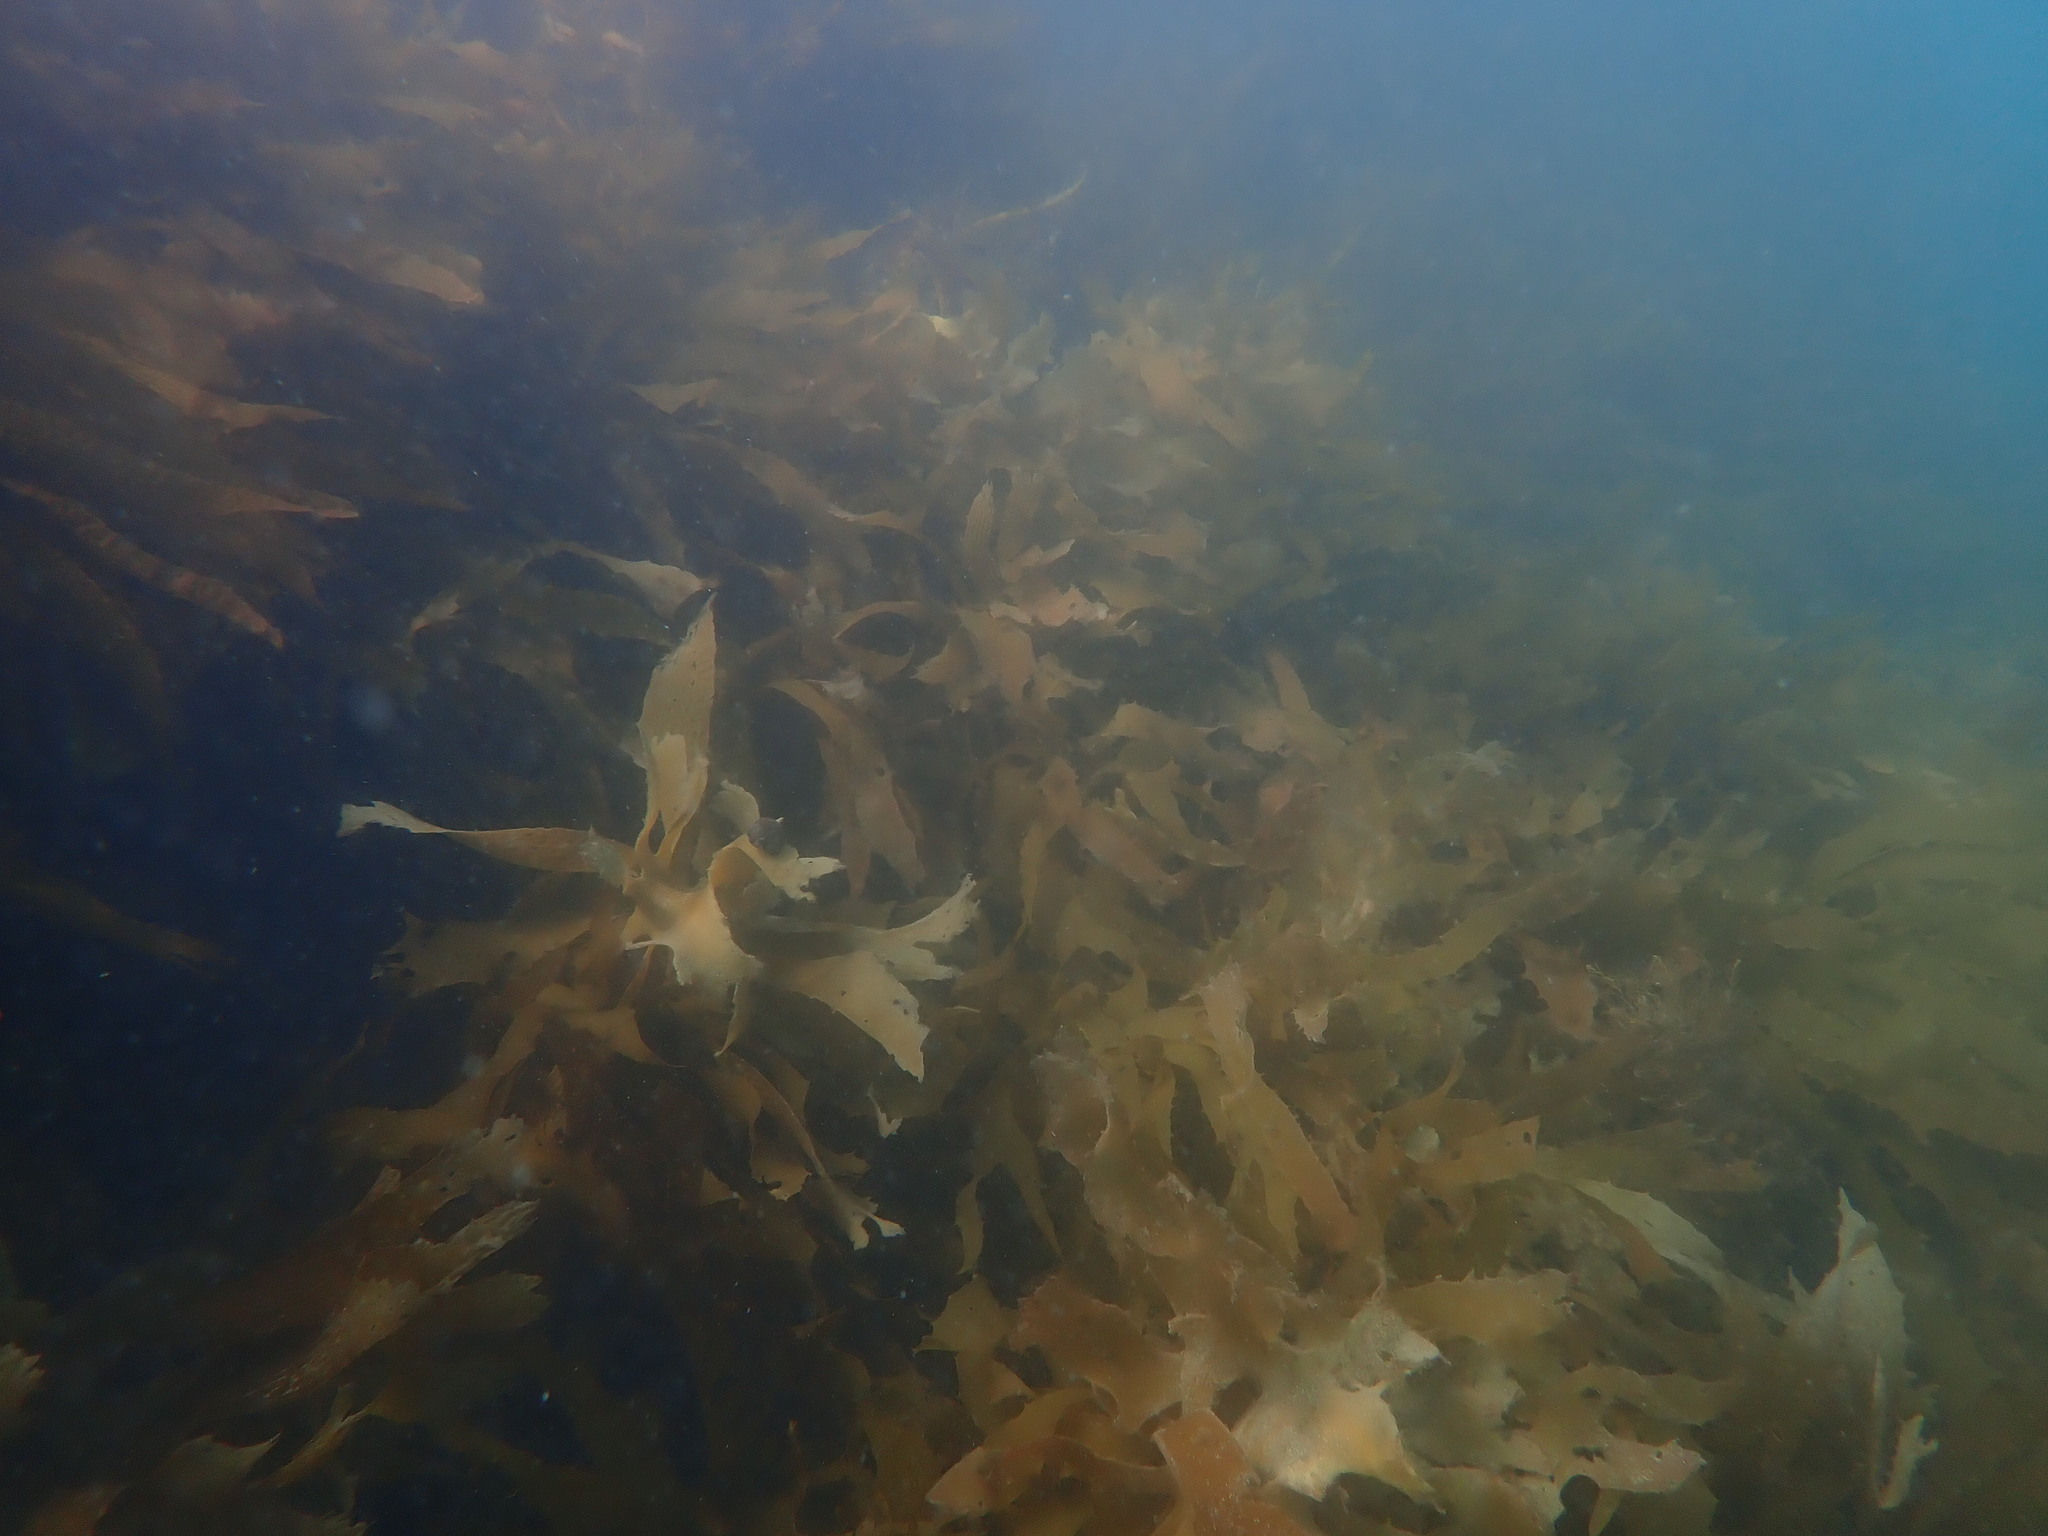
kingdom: Chromista
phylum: Ochrophyta
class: Phaeophyceae
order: Laminariales
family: Lessoniaceae
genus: Ecklonia
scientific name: Ecklonia radiata
